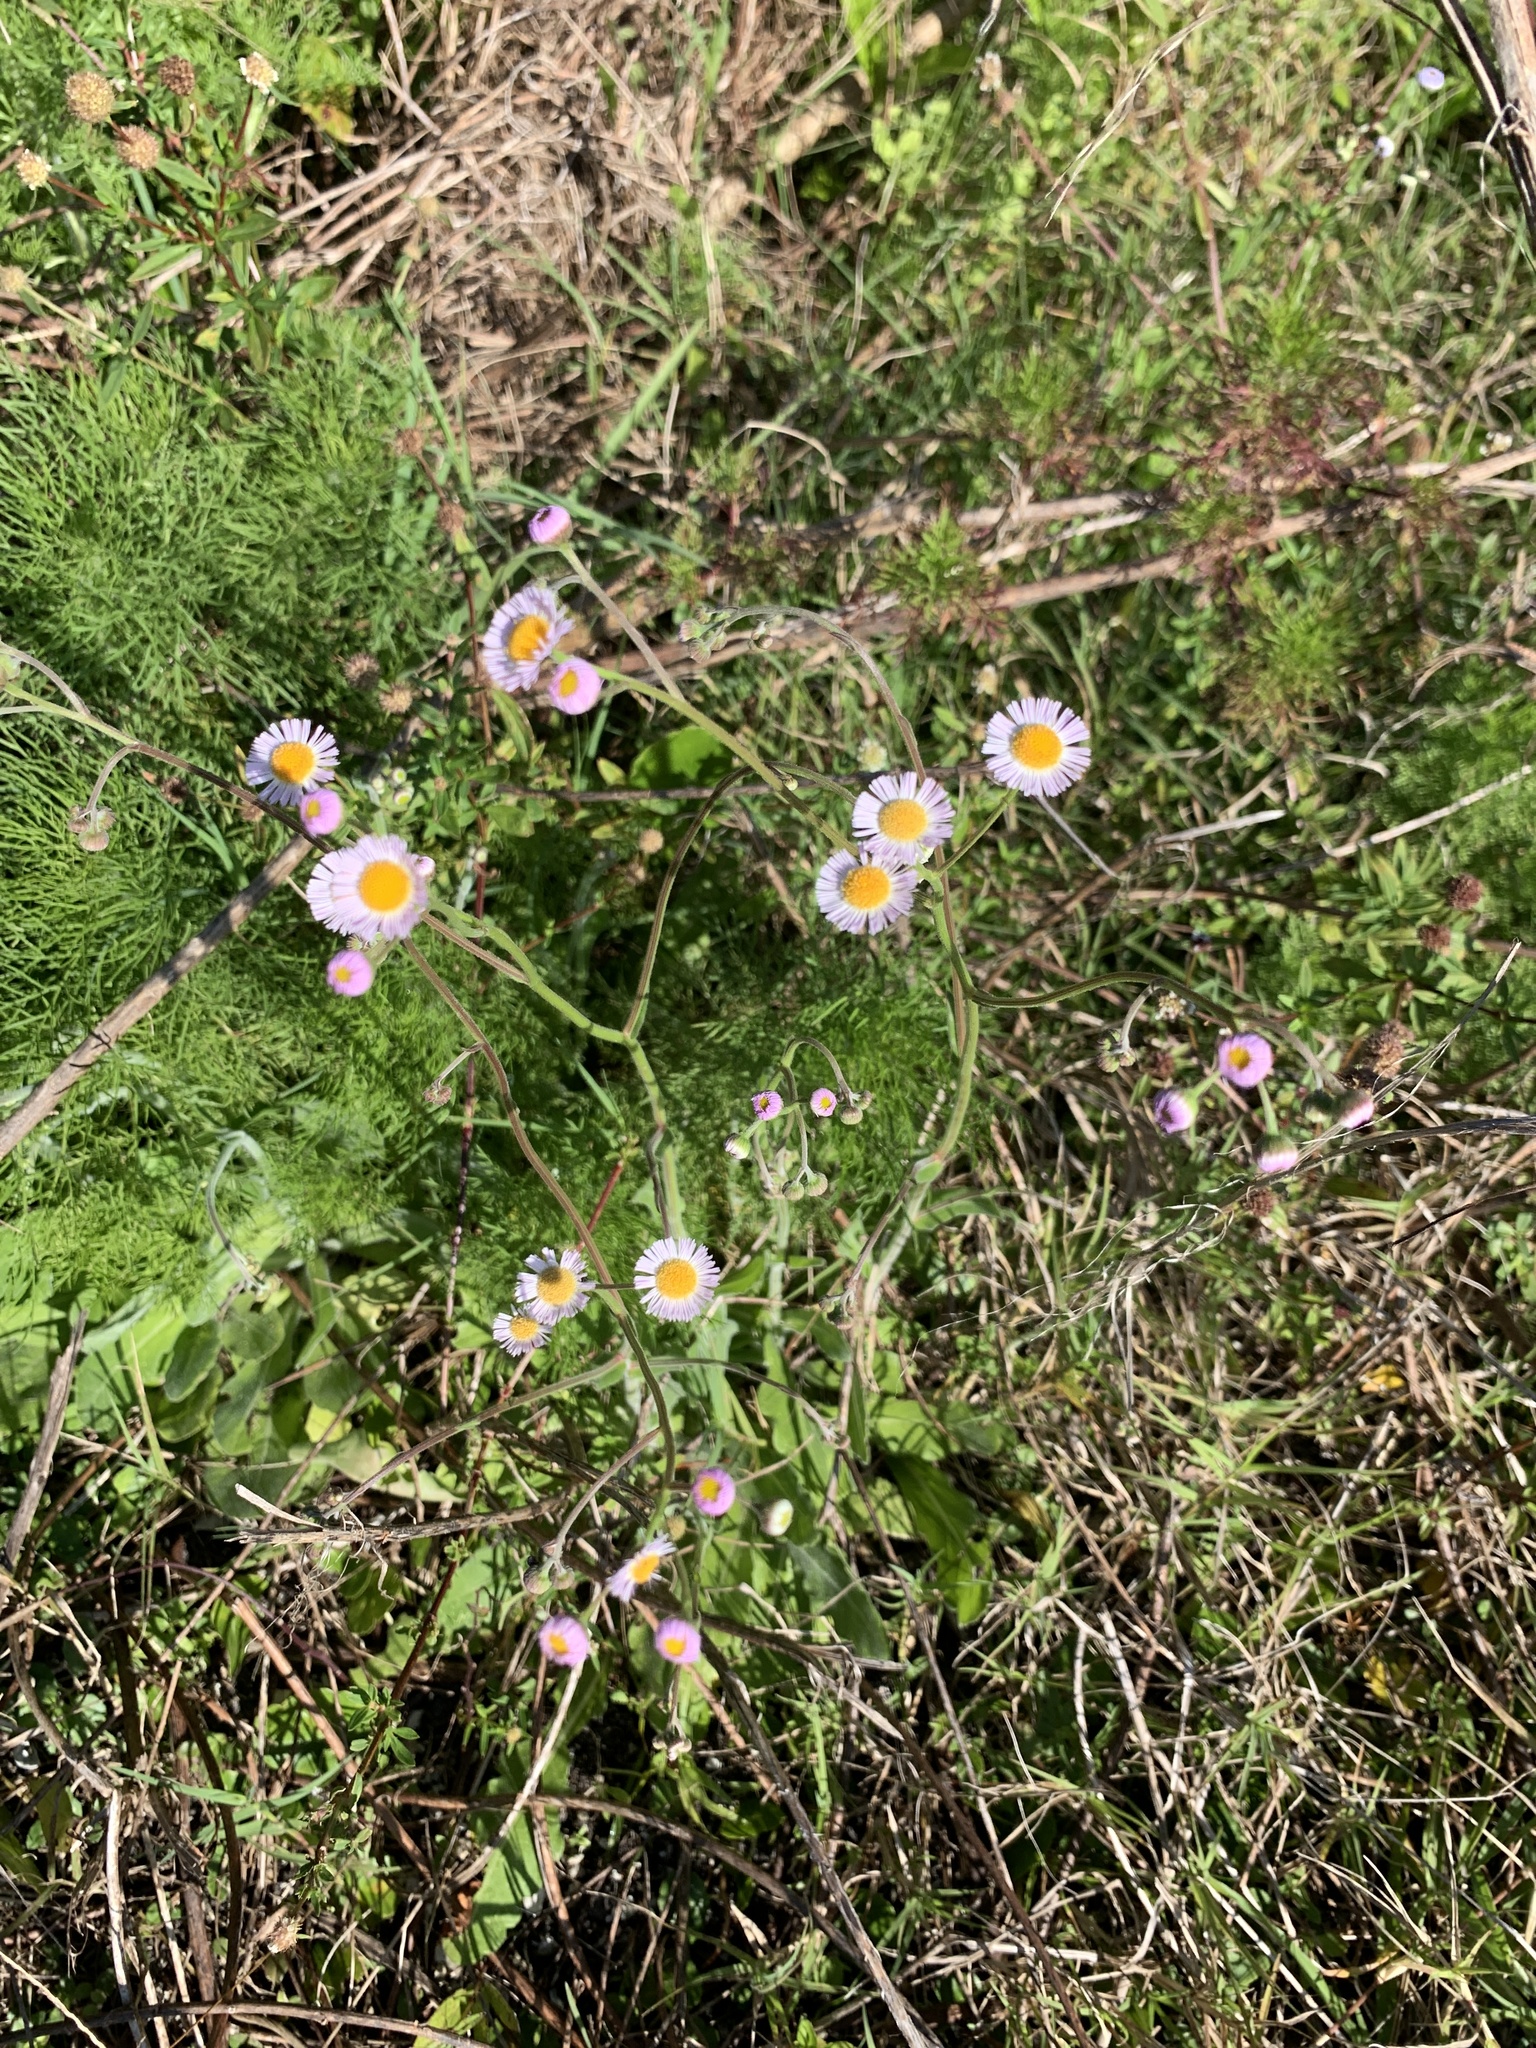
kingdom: Plantae
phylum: Tracheophyta
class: Magnoliopsida
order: Asterales
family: Asteraceae
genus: Erigeron
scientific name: Erigeron quercifolius
